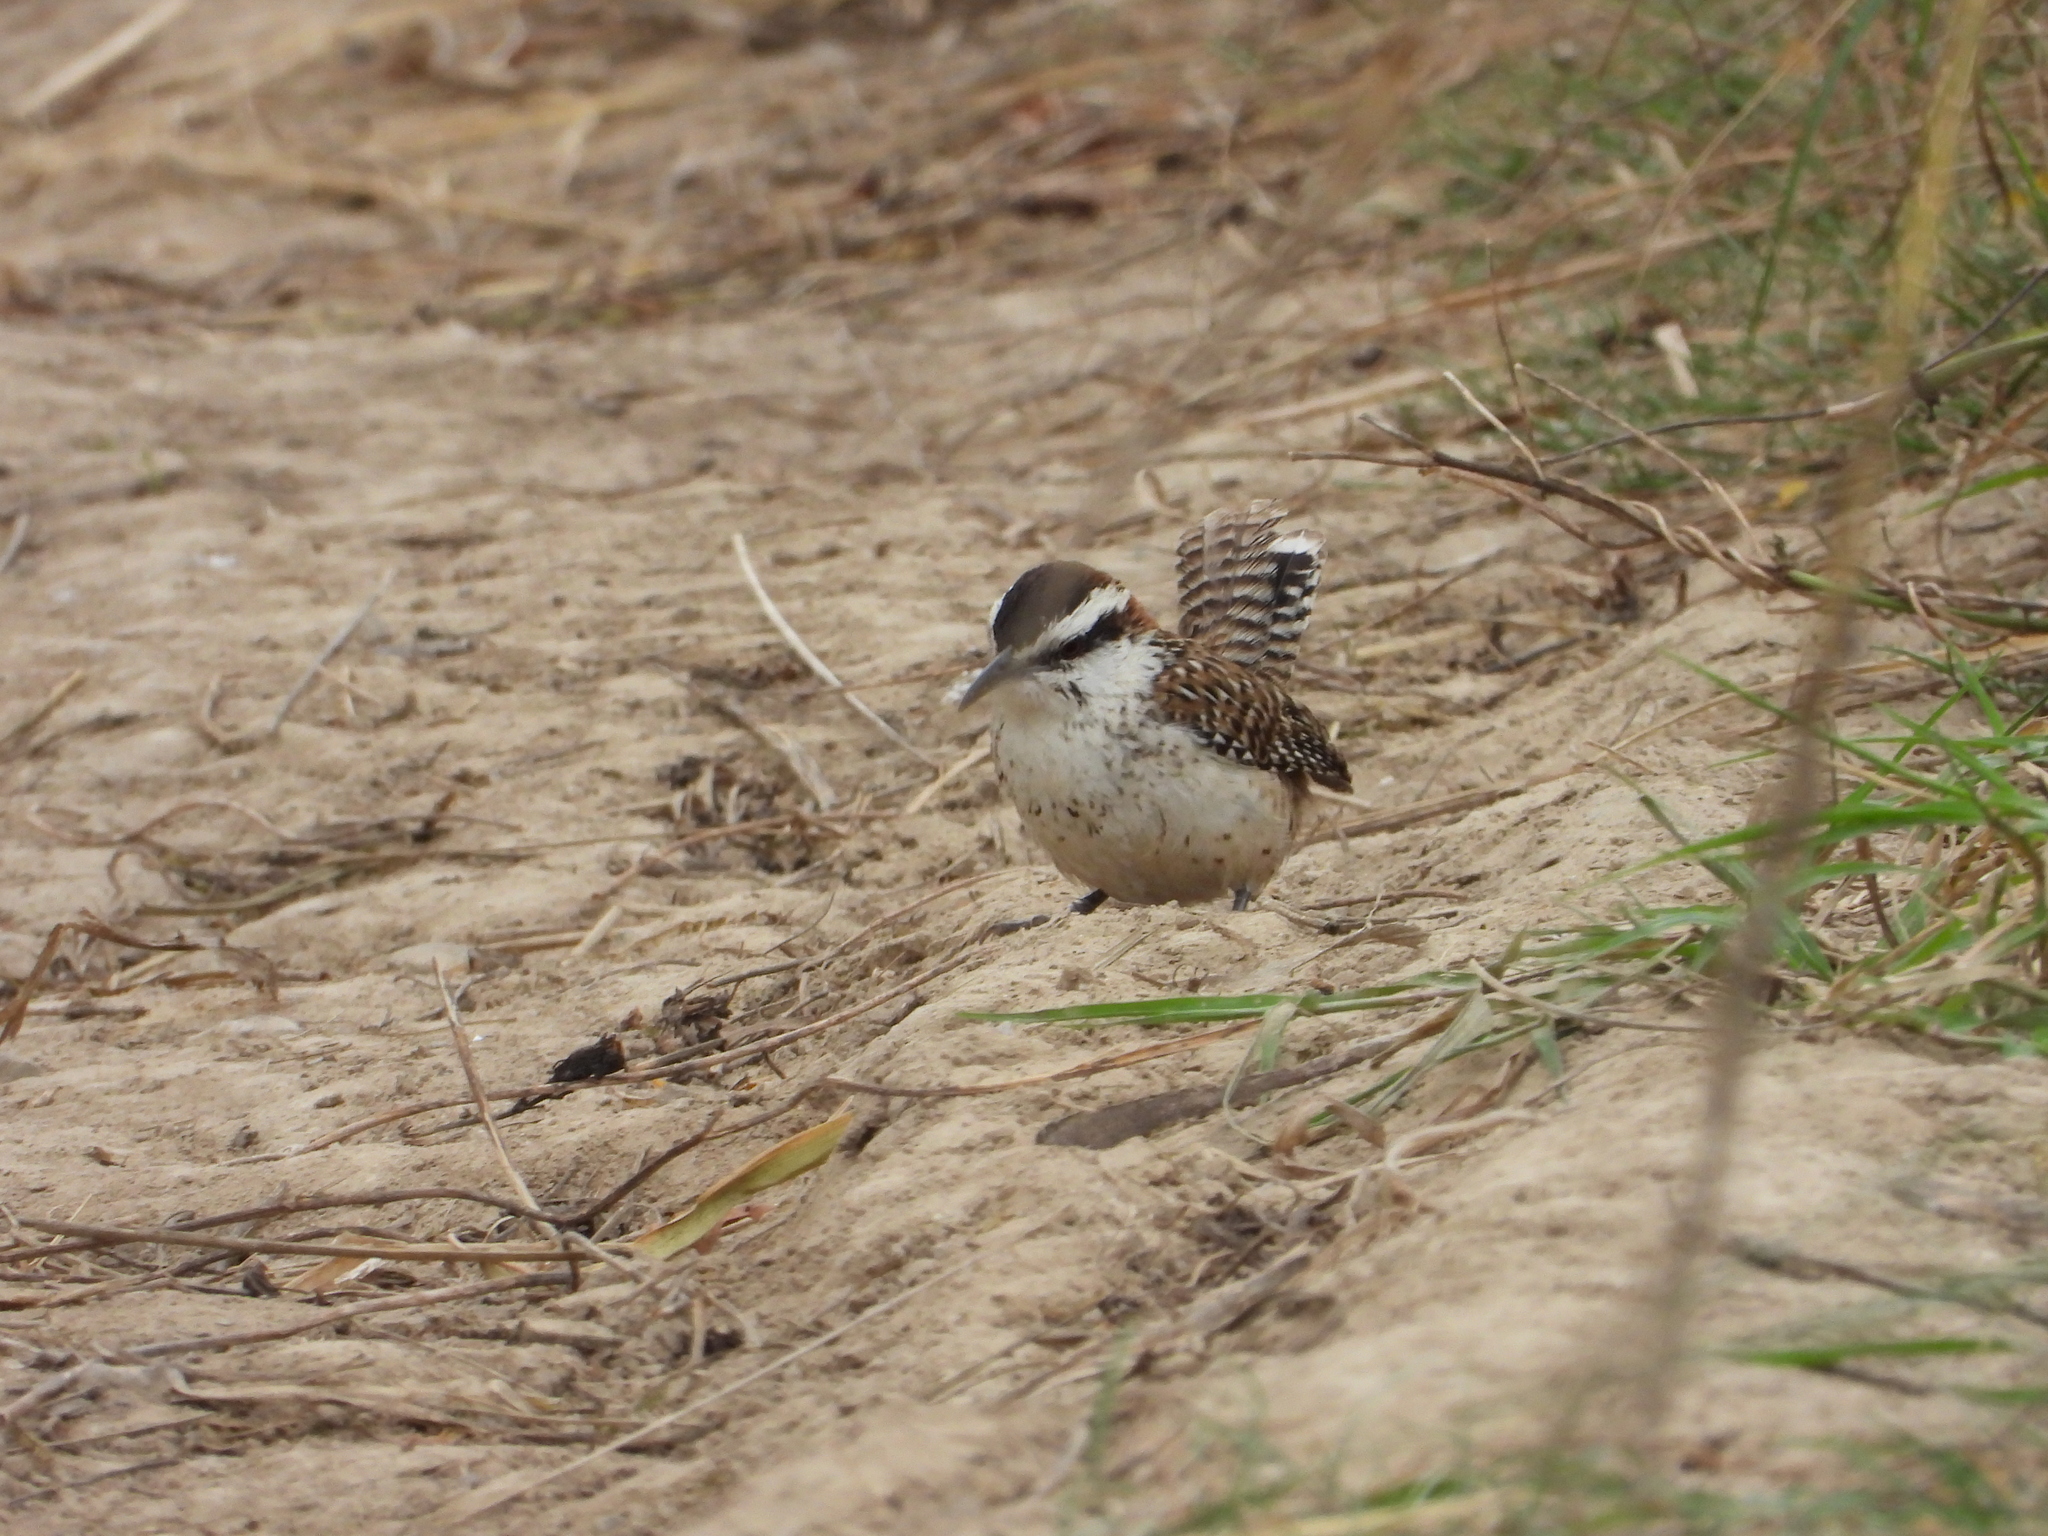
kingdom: Animalia
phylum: Chordata
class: Aves
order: Passeriformes
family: Troglodytidae
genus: Campylorhynchus
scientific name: Campylorhynchus rufinucha
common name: Rufous-naped wren
